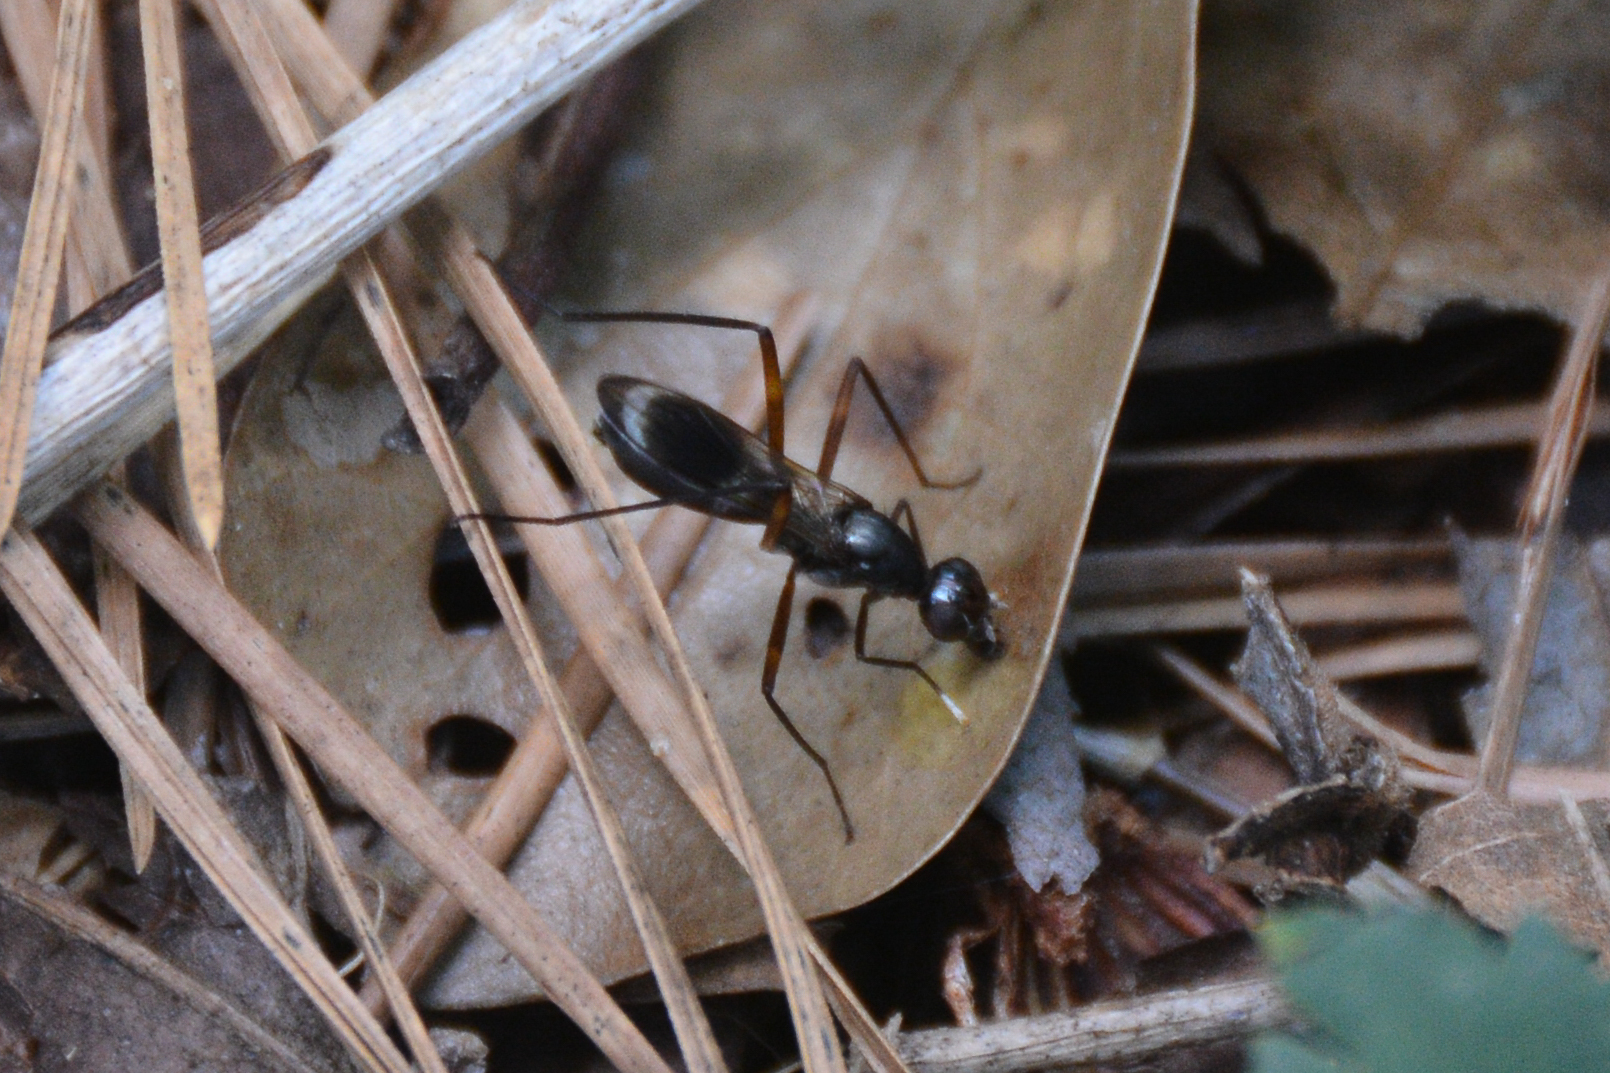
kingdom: Animalia
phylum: Arthropoda
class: Insecta
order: Diptera
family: Micropezidae
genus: Taeniaptera
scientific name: Taeniaptera trivittata
